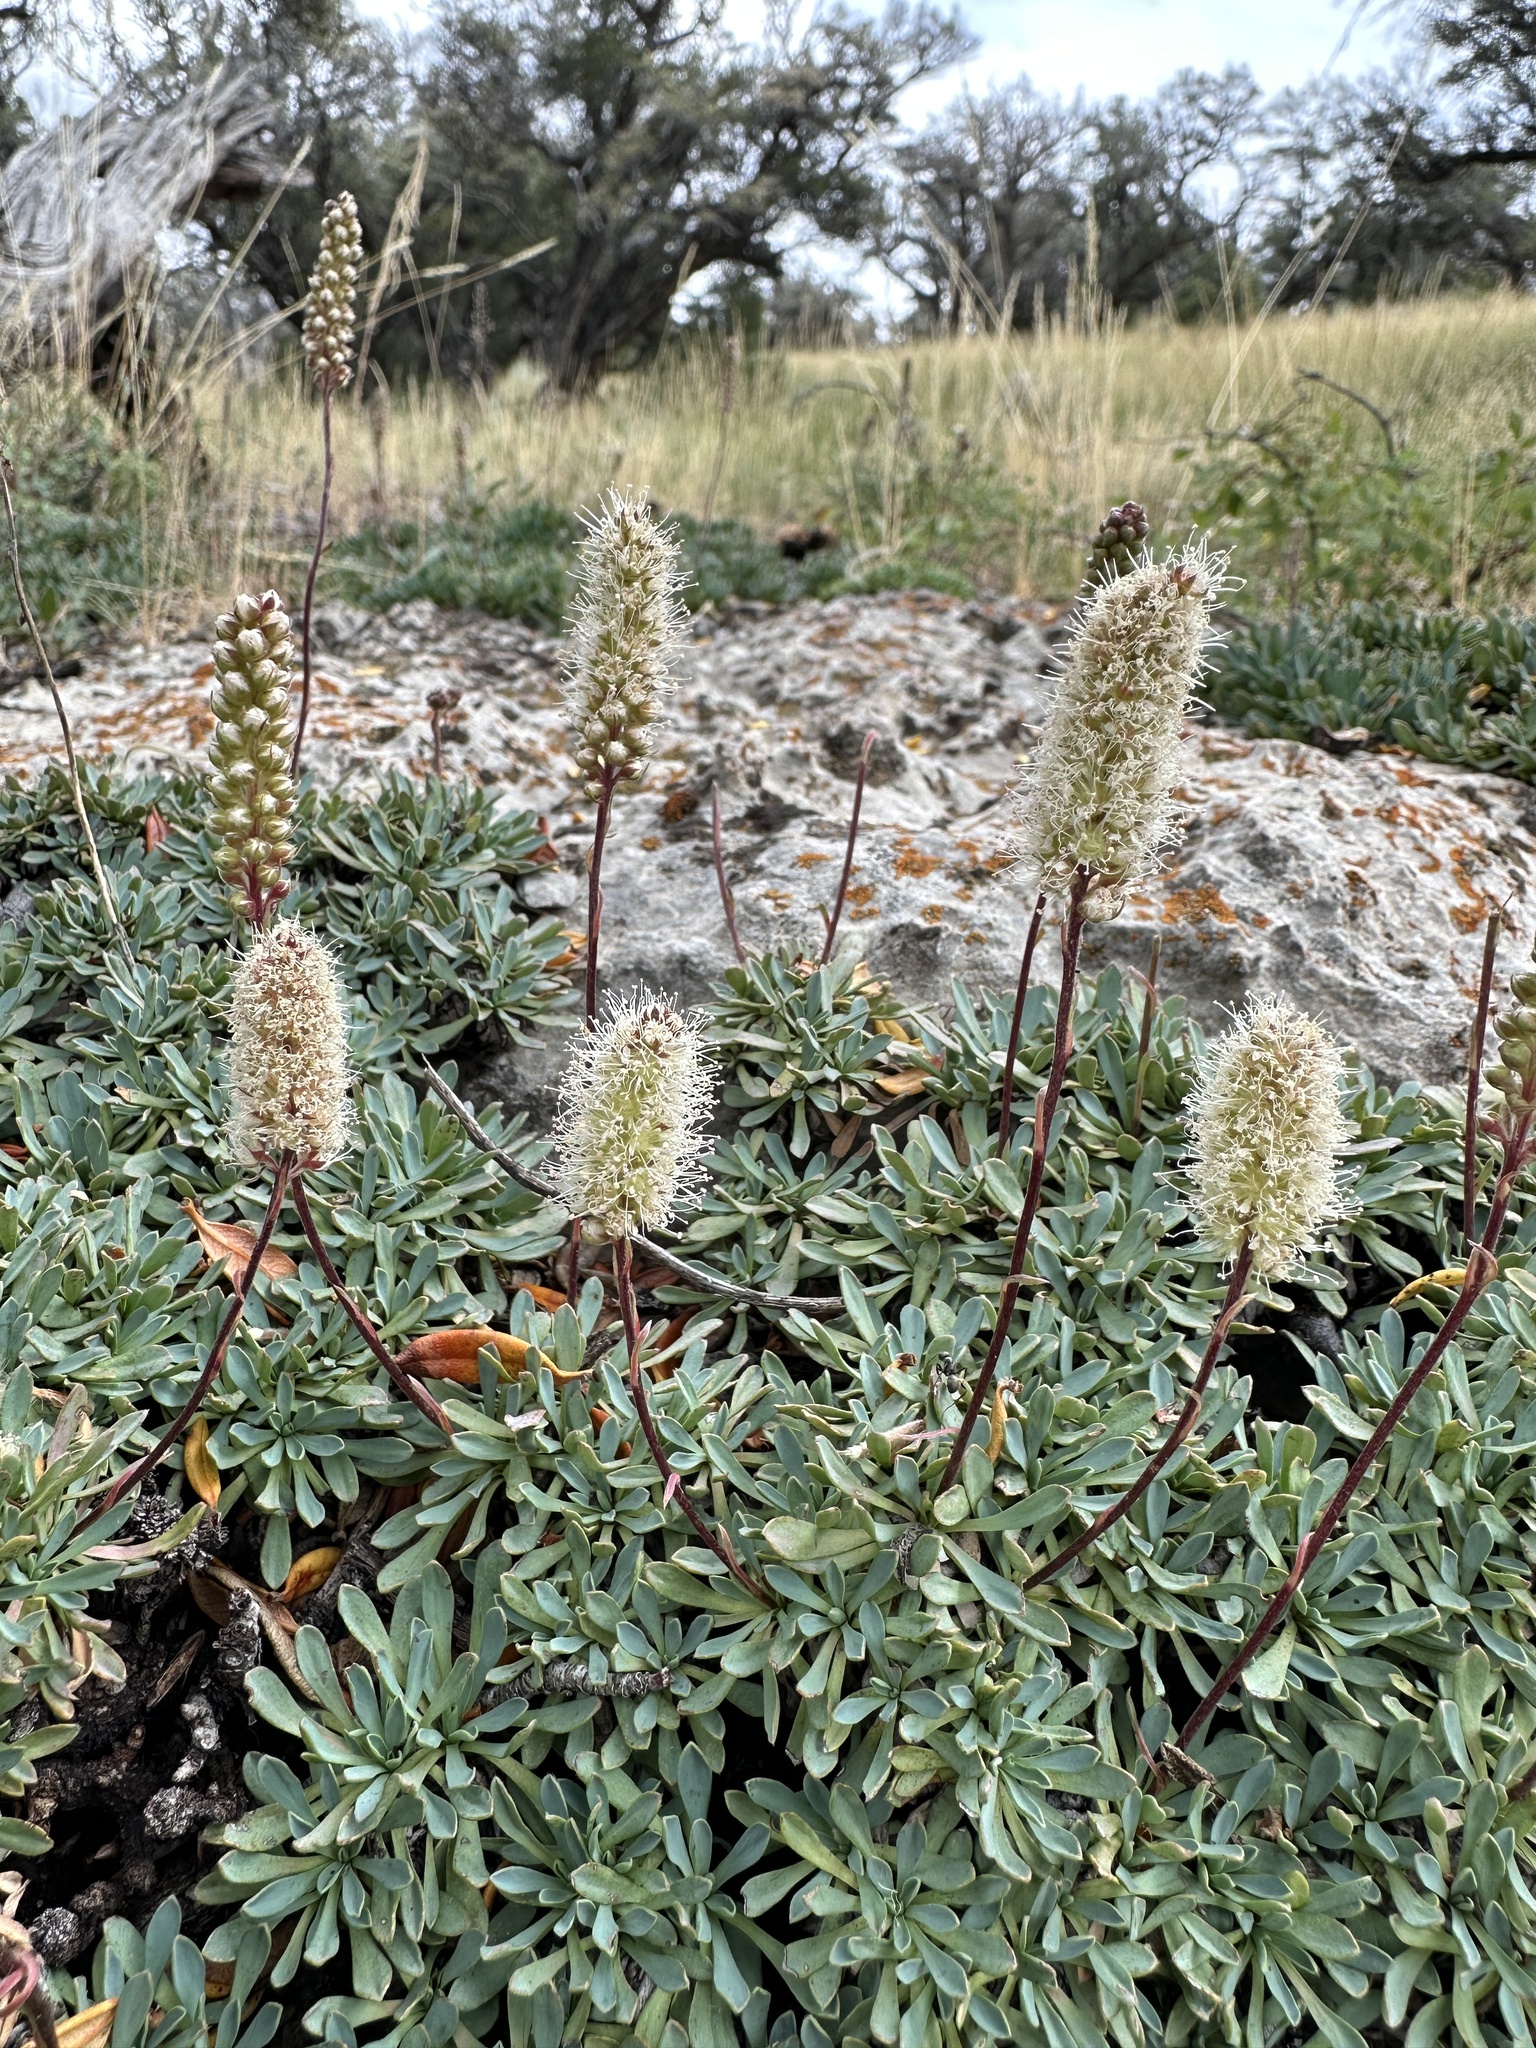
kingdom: Plantae
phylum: Tracheophyta
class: Magnoliopsida
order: Rosales
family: Rosaceae
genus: Petrophytum
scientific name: Petrophytum caespitosum
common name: Mat rockspirea
